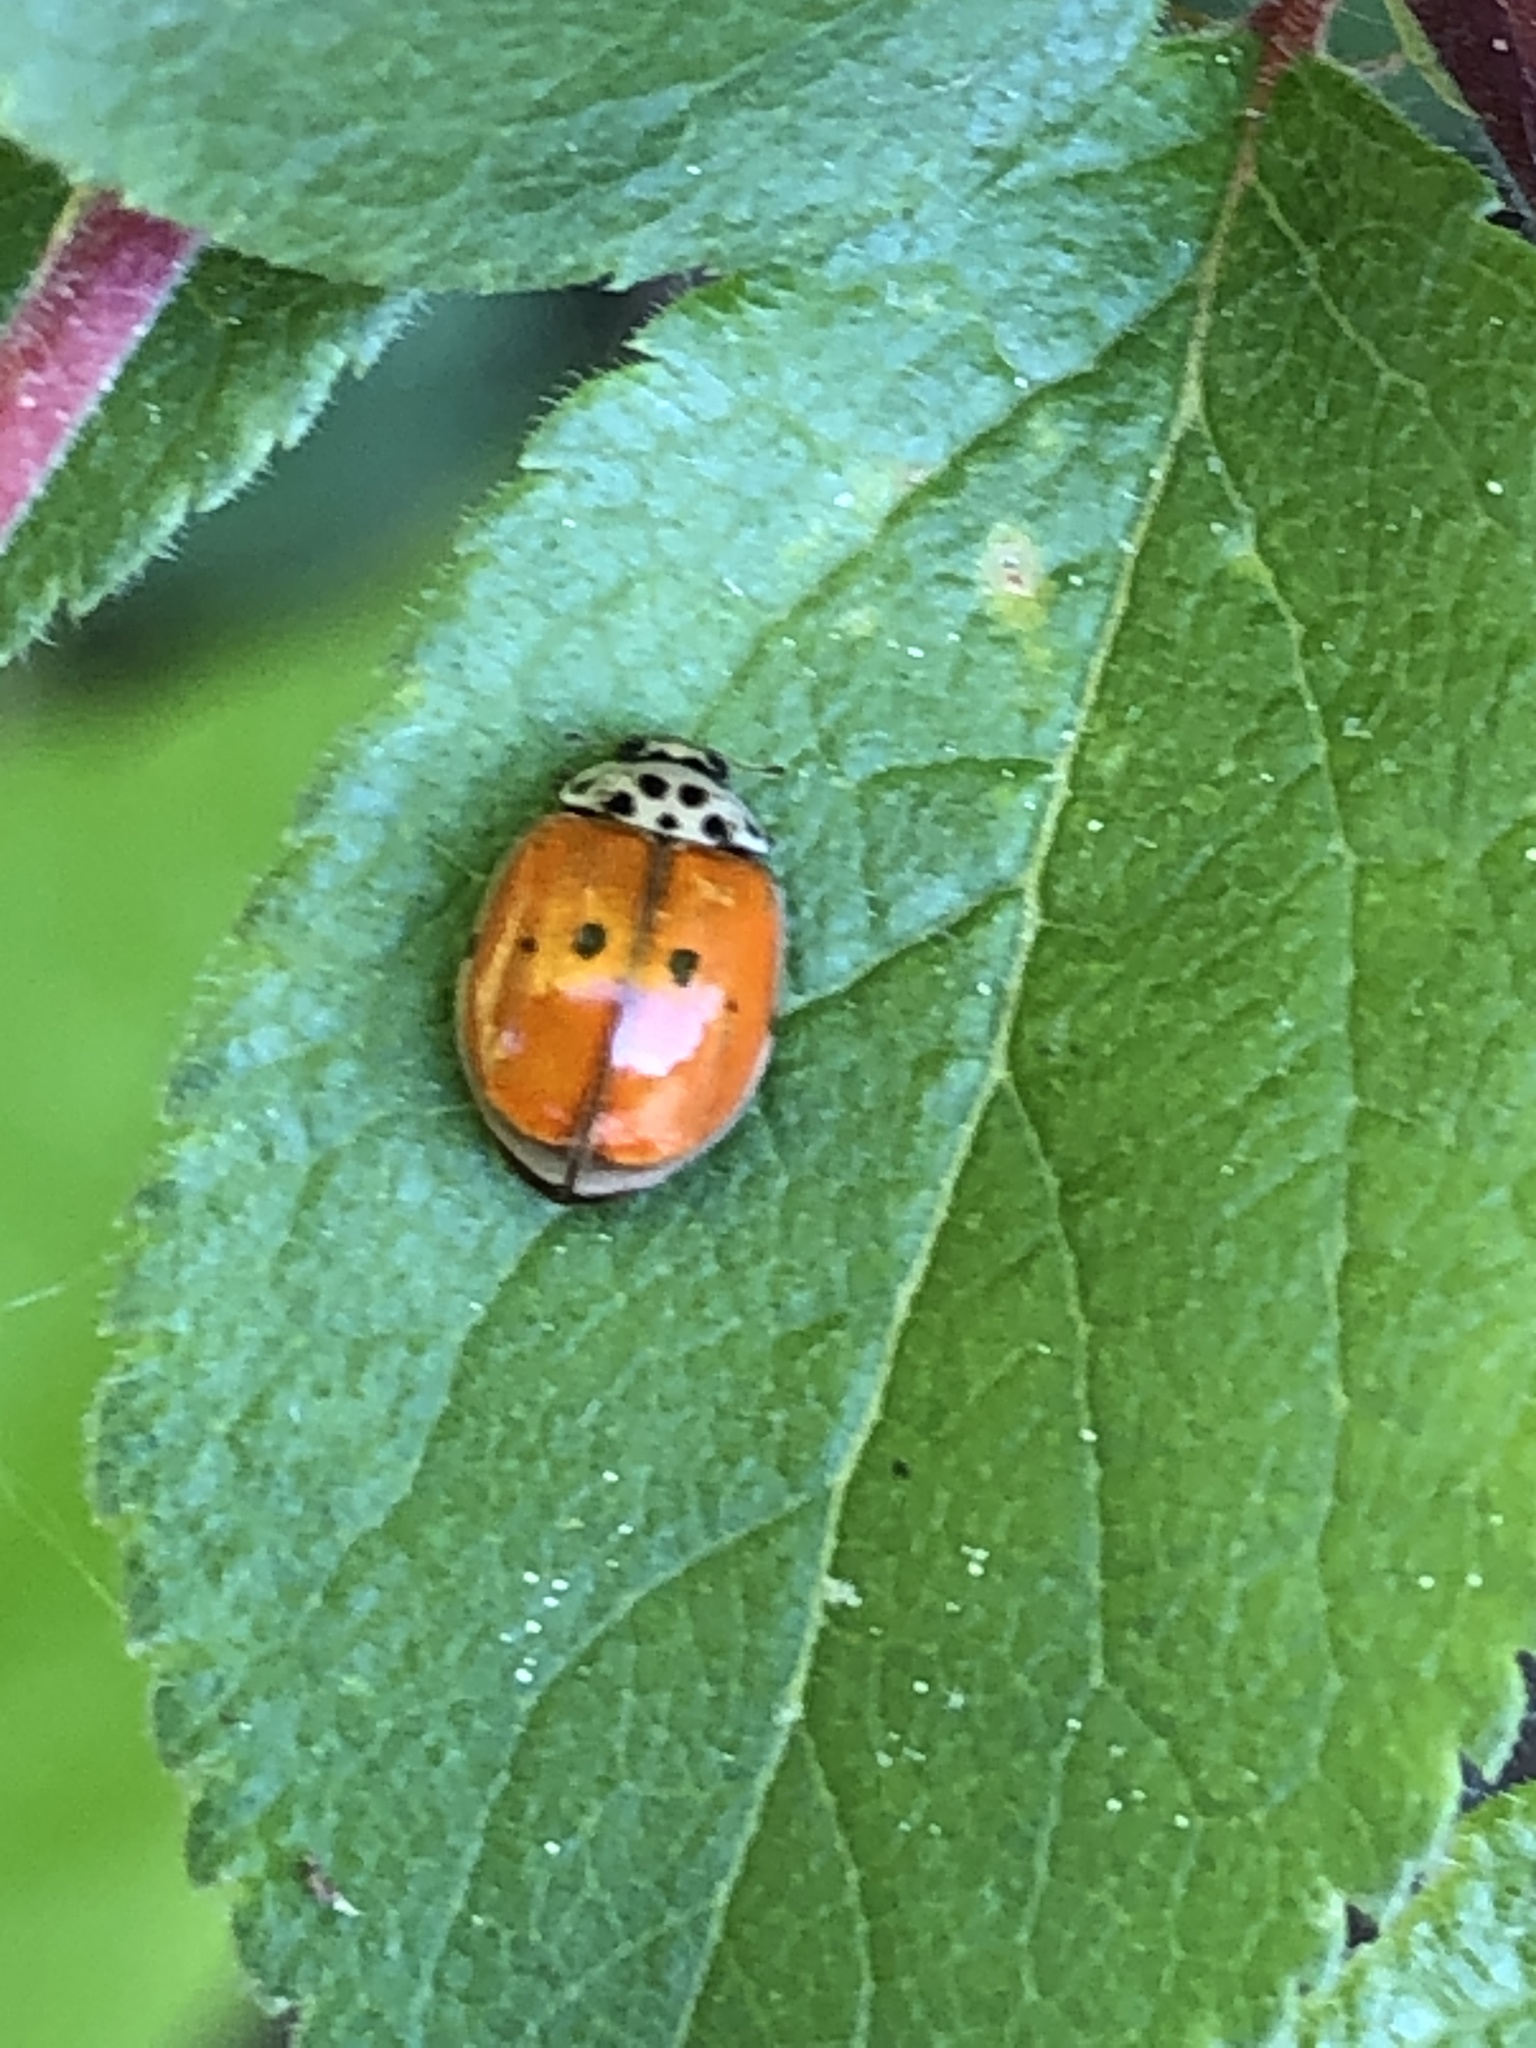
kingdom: Animalia
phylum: Arthropoda
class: Insecta
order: Coleoptera
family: Coccinellidae
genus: Adalia
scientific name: Adalia decempunctata
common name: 10-spot ladybird
